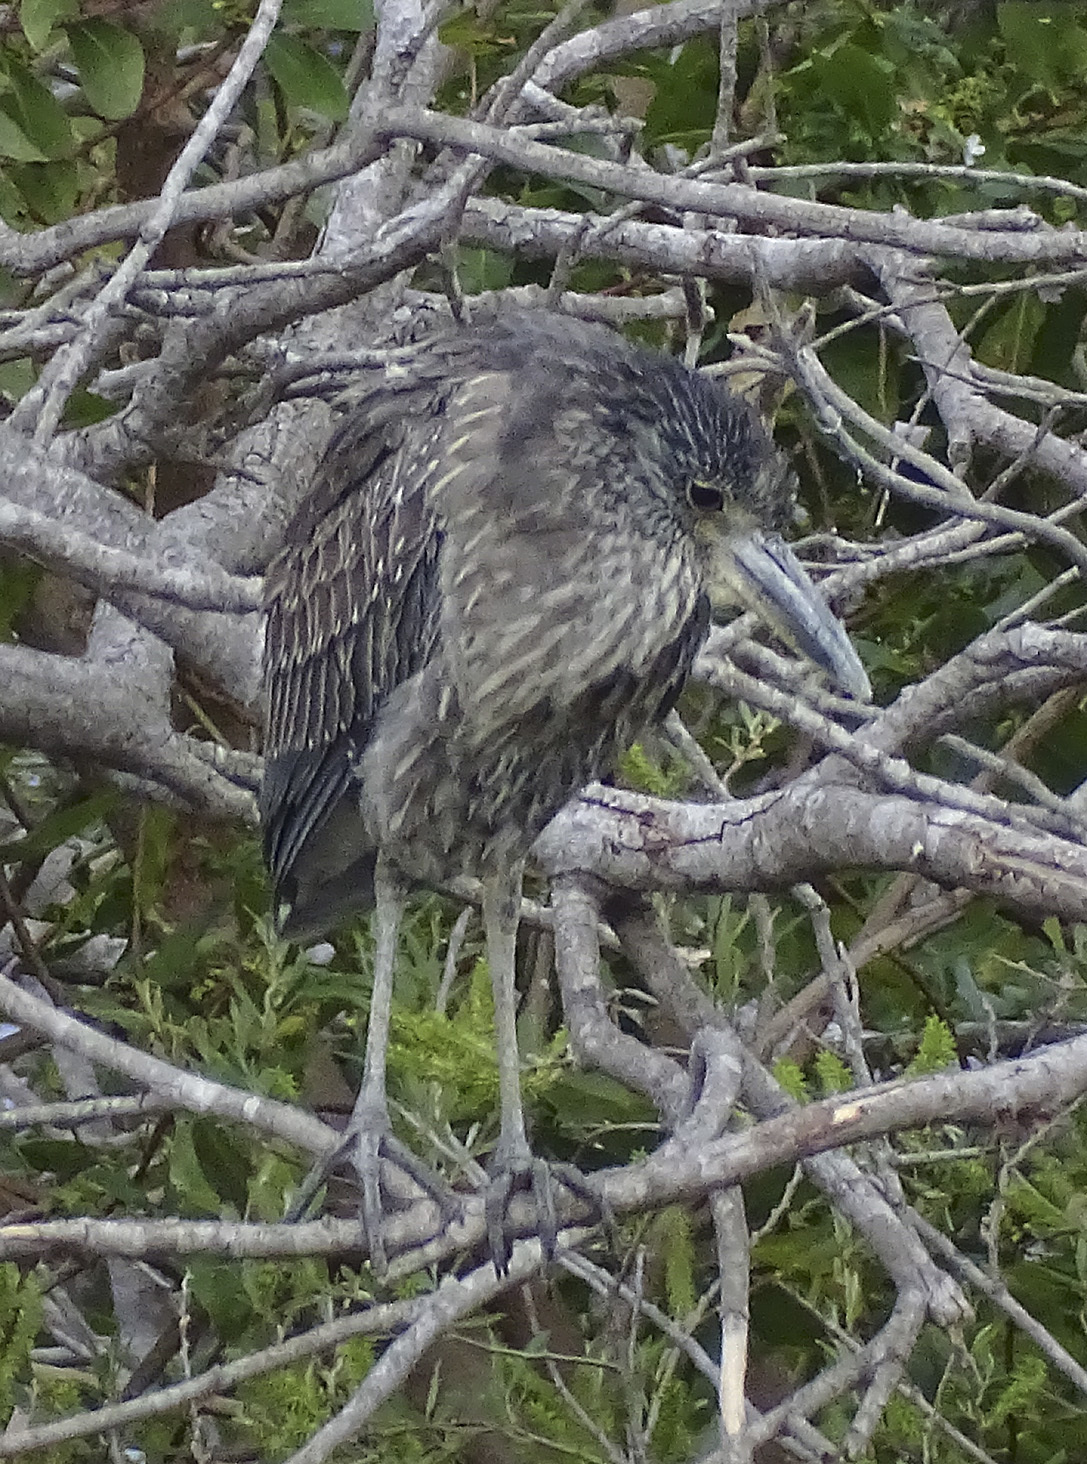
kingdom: Animalia
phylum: Chordata
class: Aves
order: Pelecaniformes
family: Ardeidae
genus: Nyctanassa
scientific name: Nyctanassa violacea
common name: Yellow-crowned night heron
